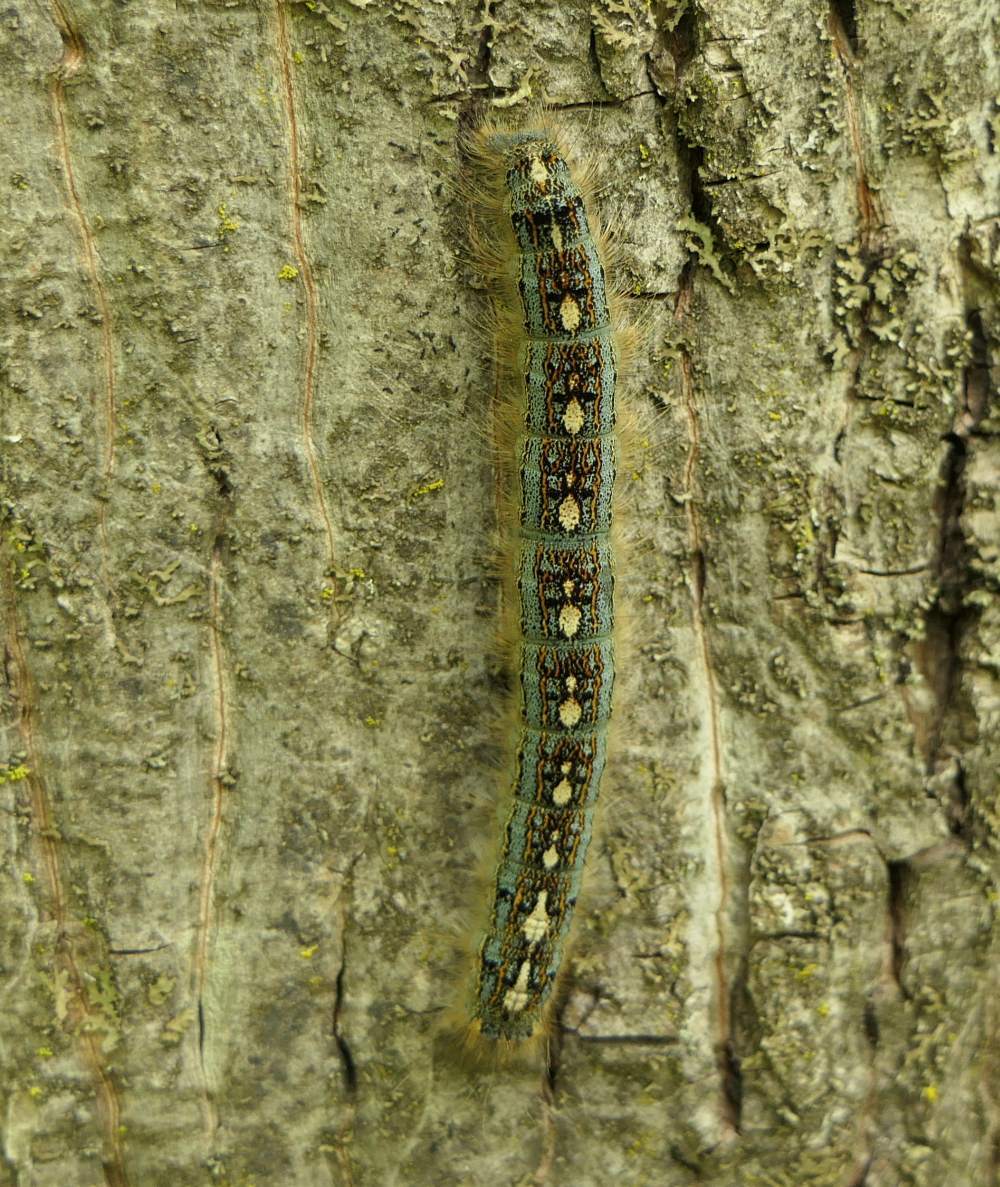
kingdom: Animalia
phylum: Arthropoda
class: Insecta
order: Lepidoptera
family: Lasiocampidae
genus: Malacosoma
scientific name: Malacosoma disstria
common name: Forest tent caterpillar
